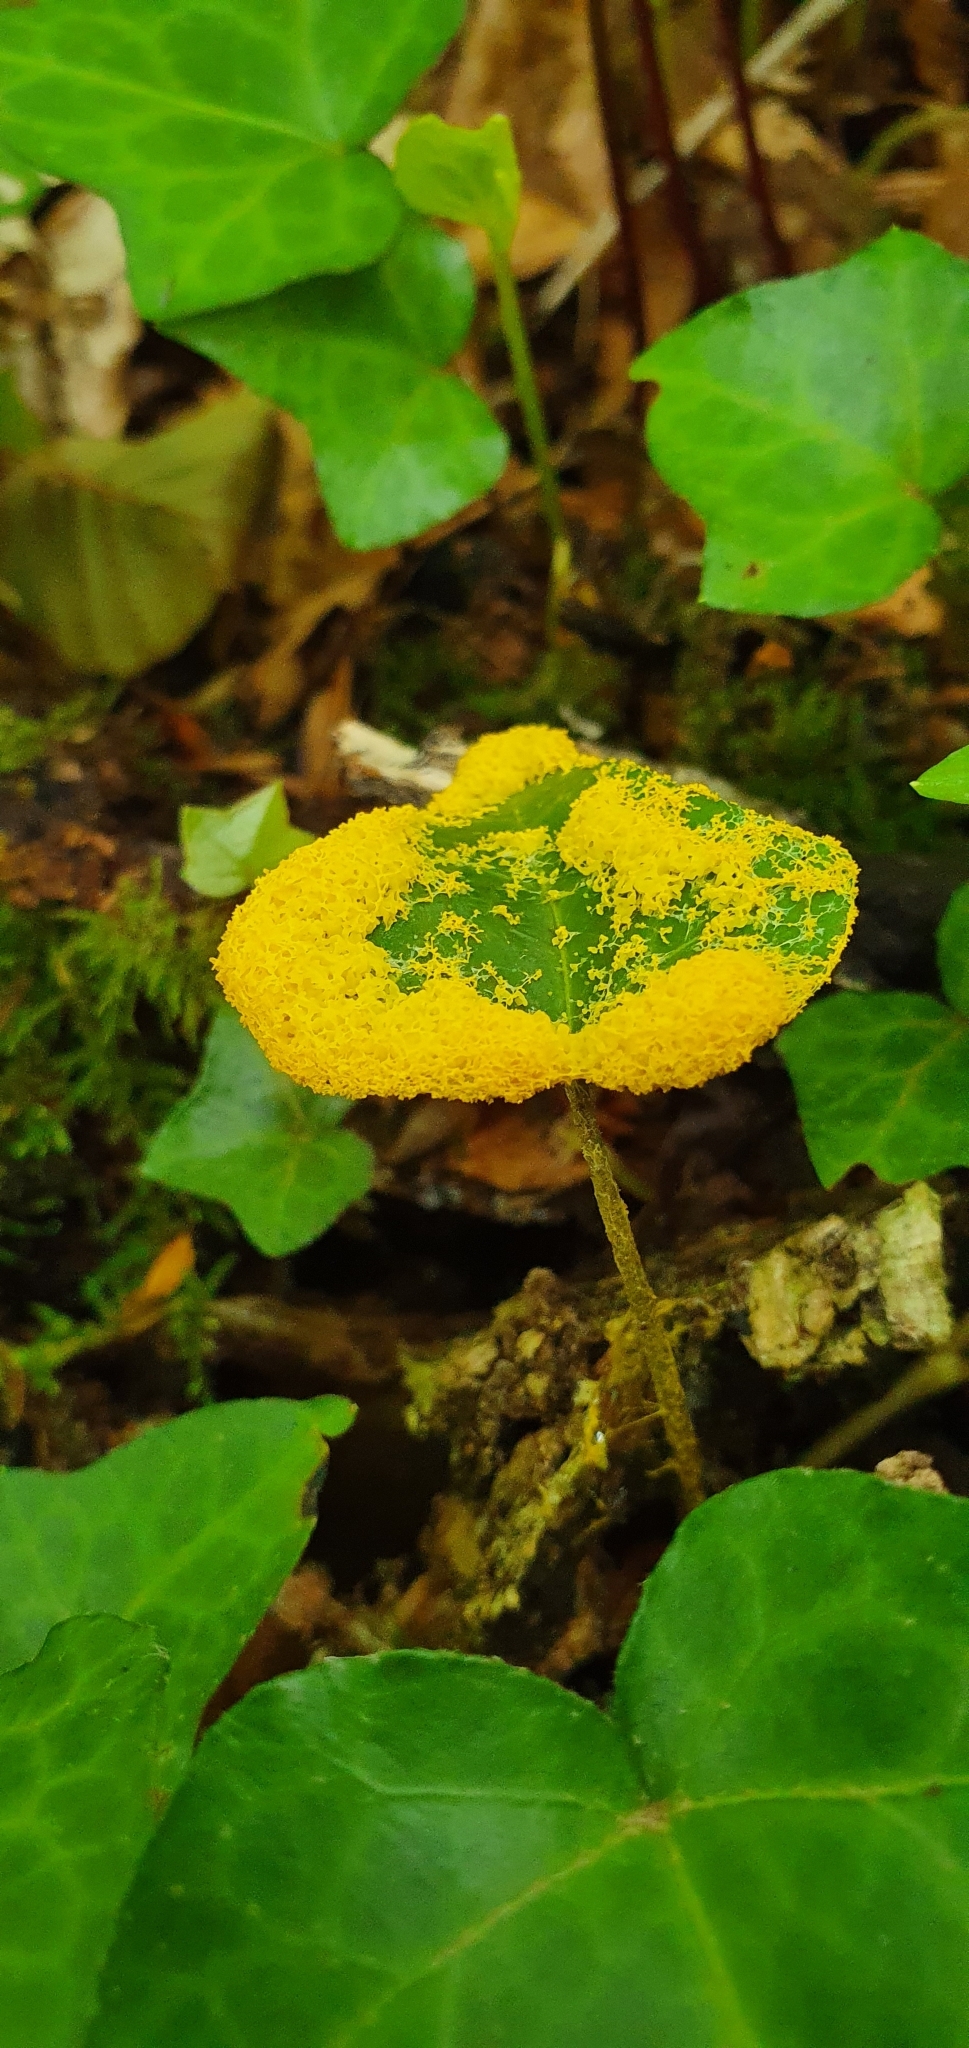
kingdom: Protozoa
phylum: Mycetozoa
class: Myxomycetes
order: Physarales
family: Physaraceae
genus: Fuligo
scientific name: Fuligo septica
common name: Dog vomit slime mold
